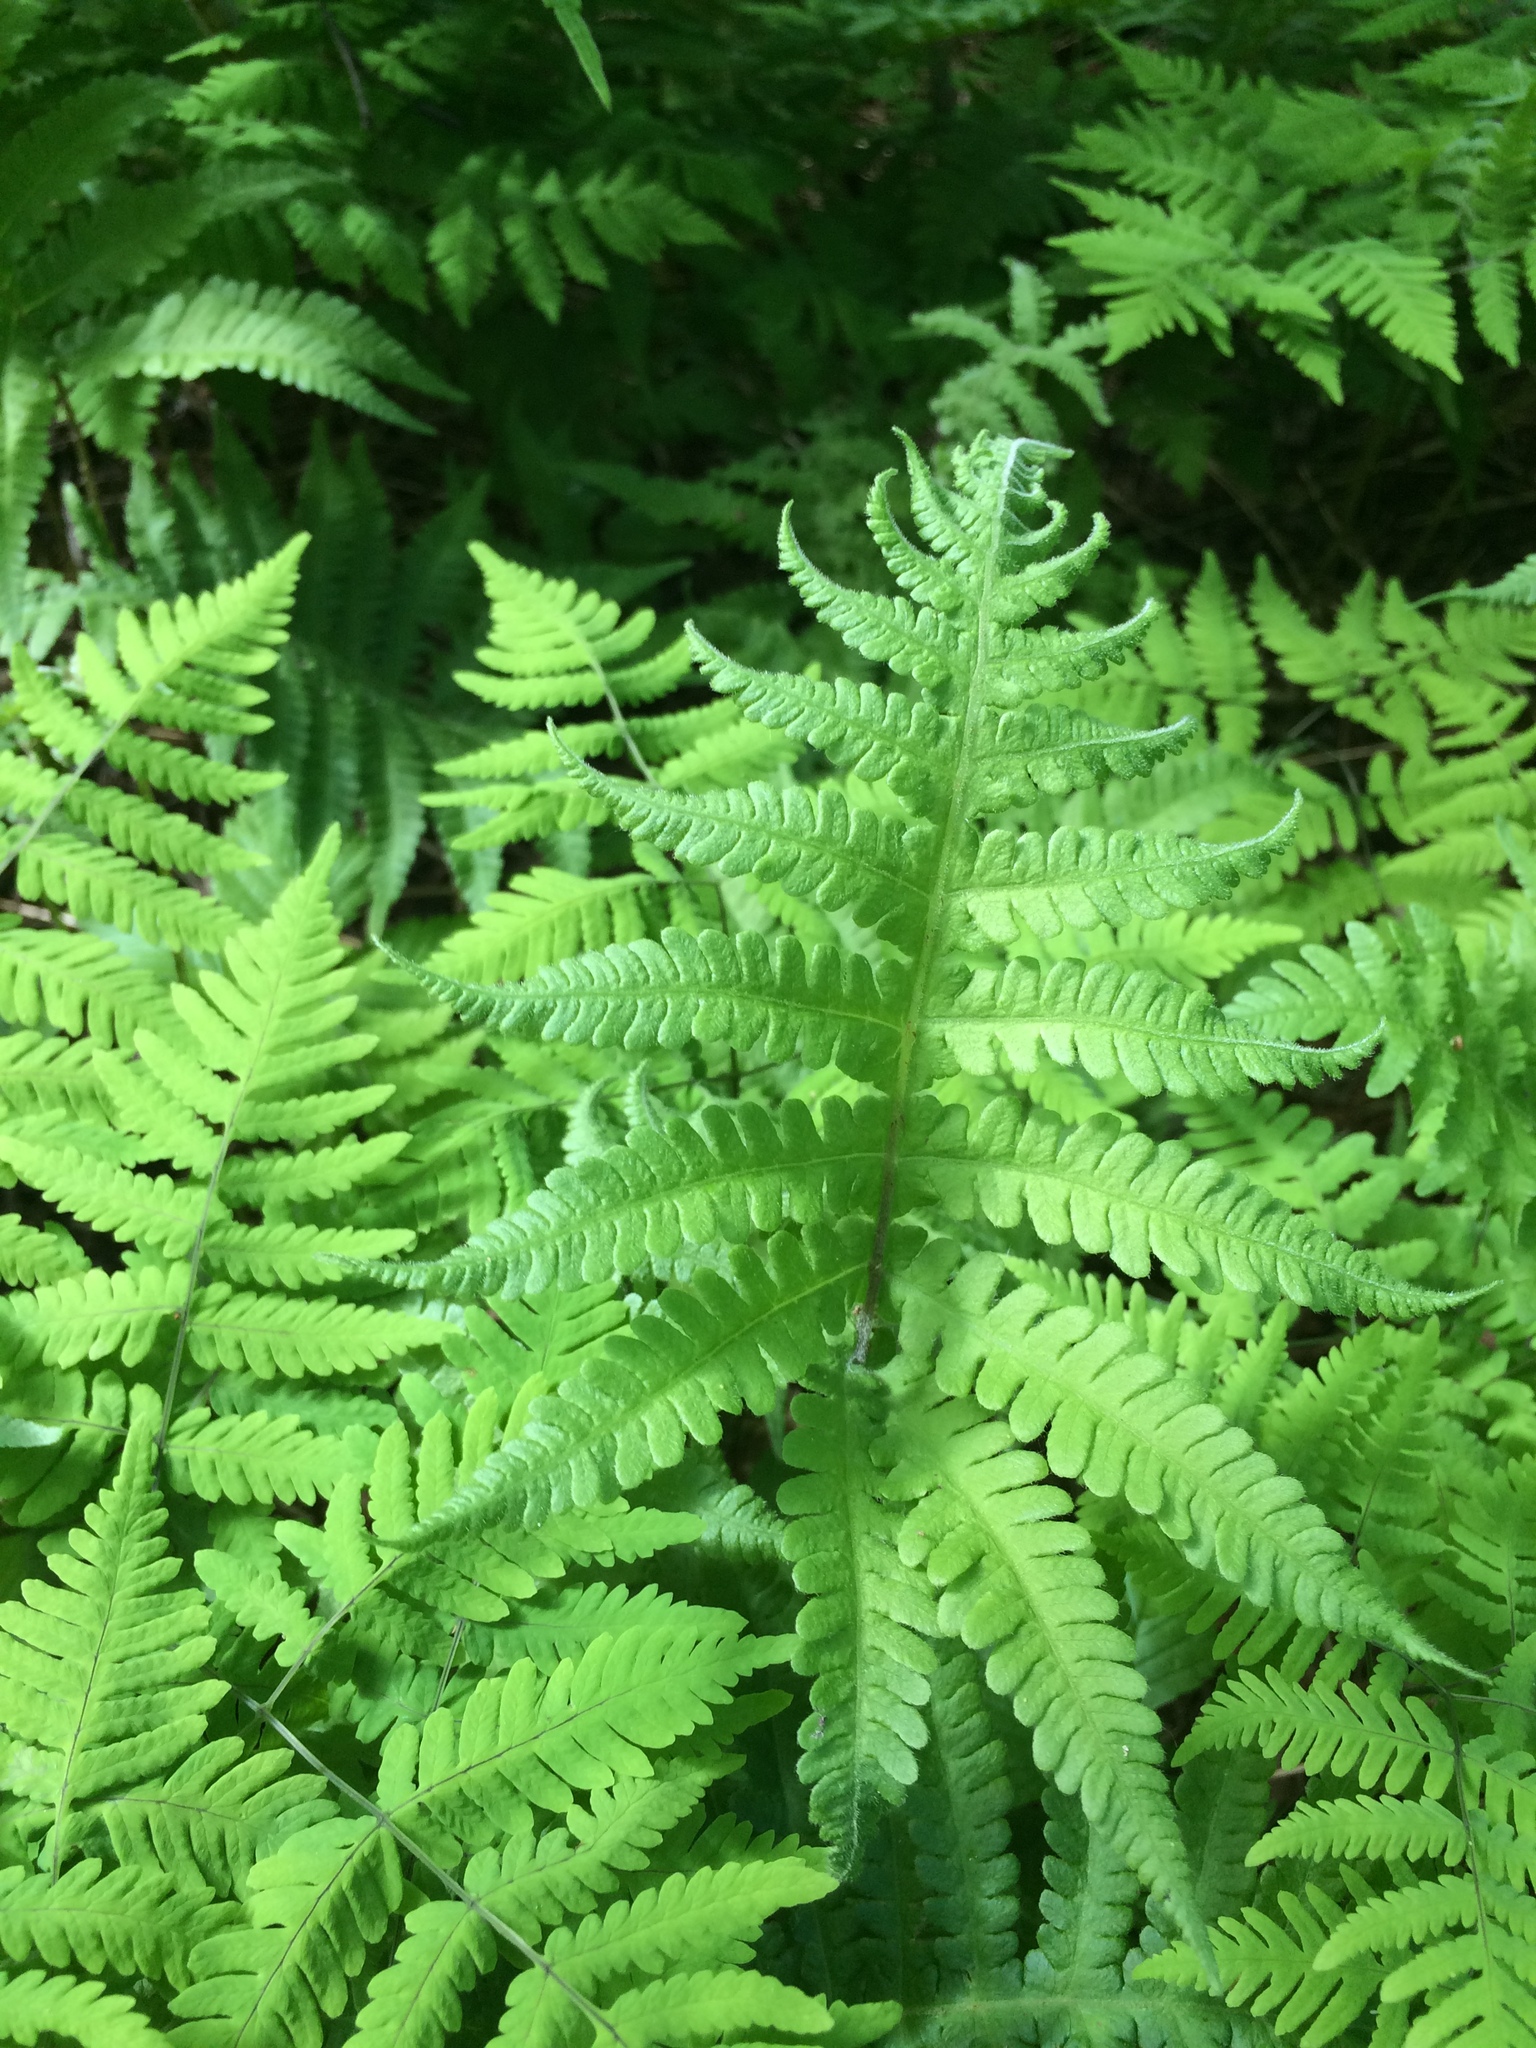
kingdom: Plantae
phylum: Tracheophyta
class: Polypodiopsida
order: Polypodiales
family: Thelypteridaceae
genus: Phegopteris
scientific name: Phegopteris connectilis
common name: Beech fern
